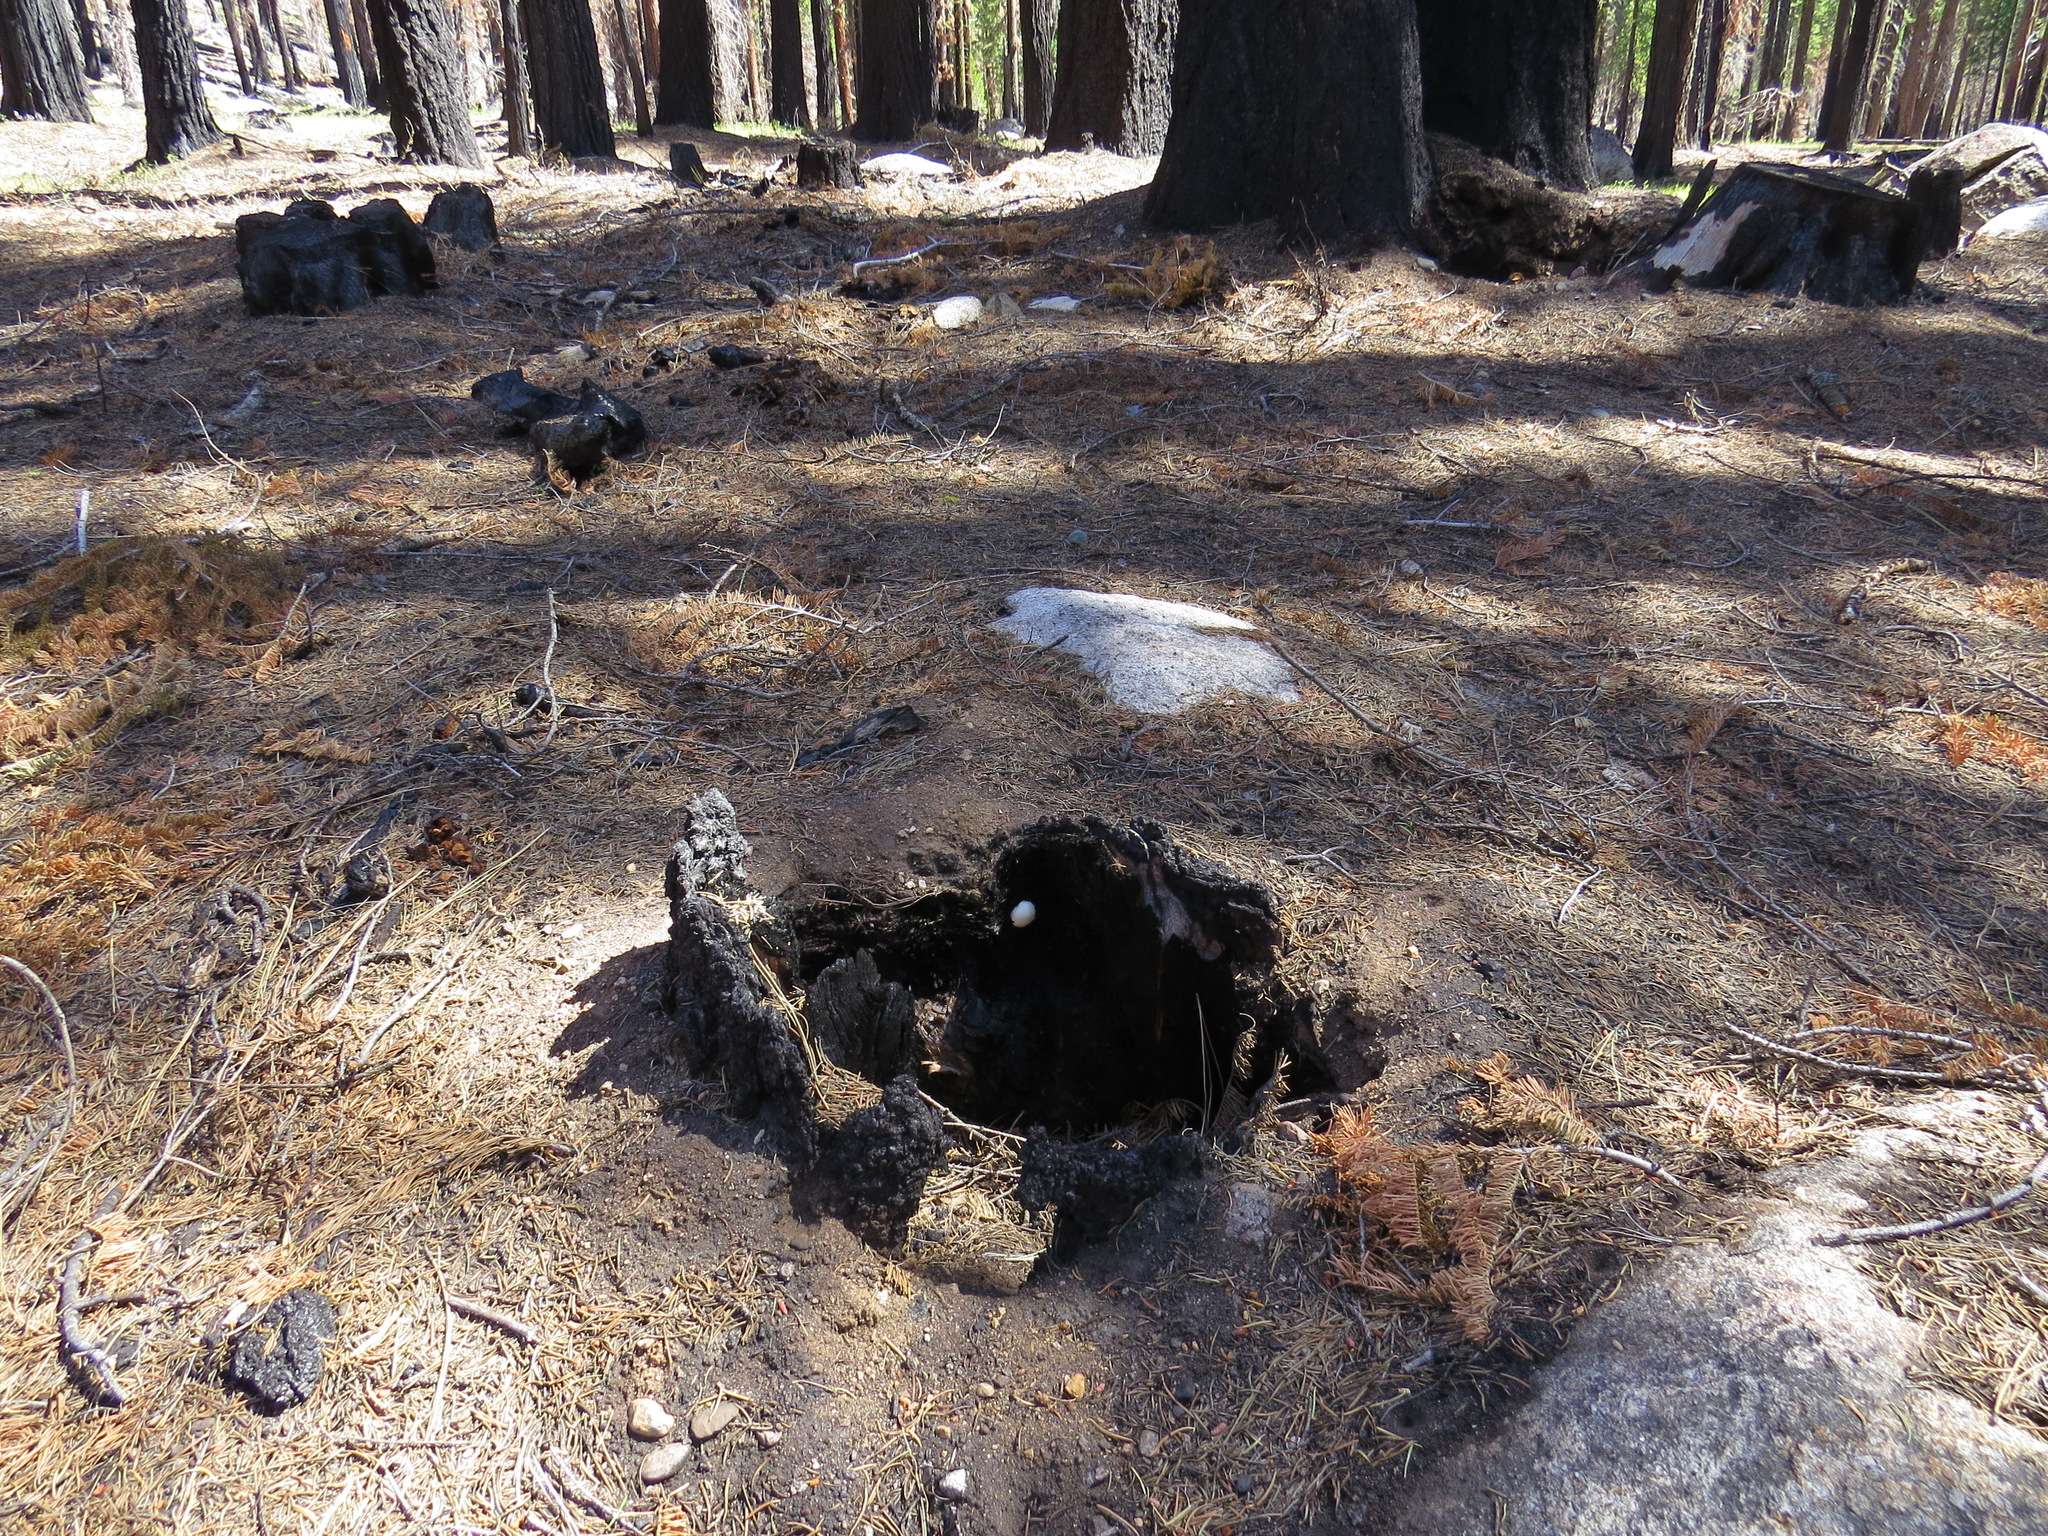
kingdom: Protozoa
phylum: Mycetozoa
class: Myxomycetes
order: Cribrariales
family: Tubiferaceae
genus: Reticularia
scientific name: Reticularia lycoperdon
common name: False puffball
